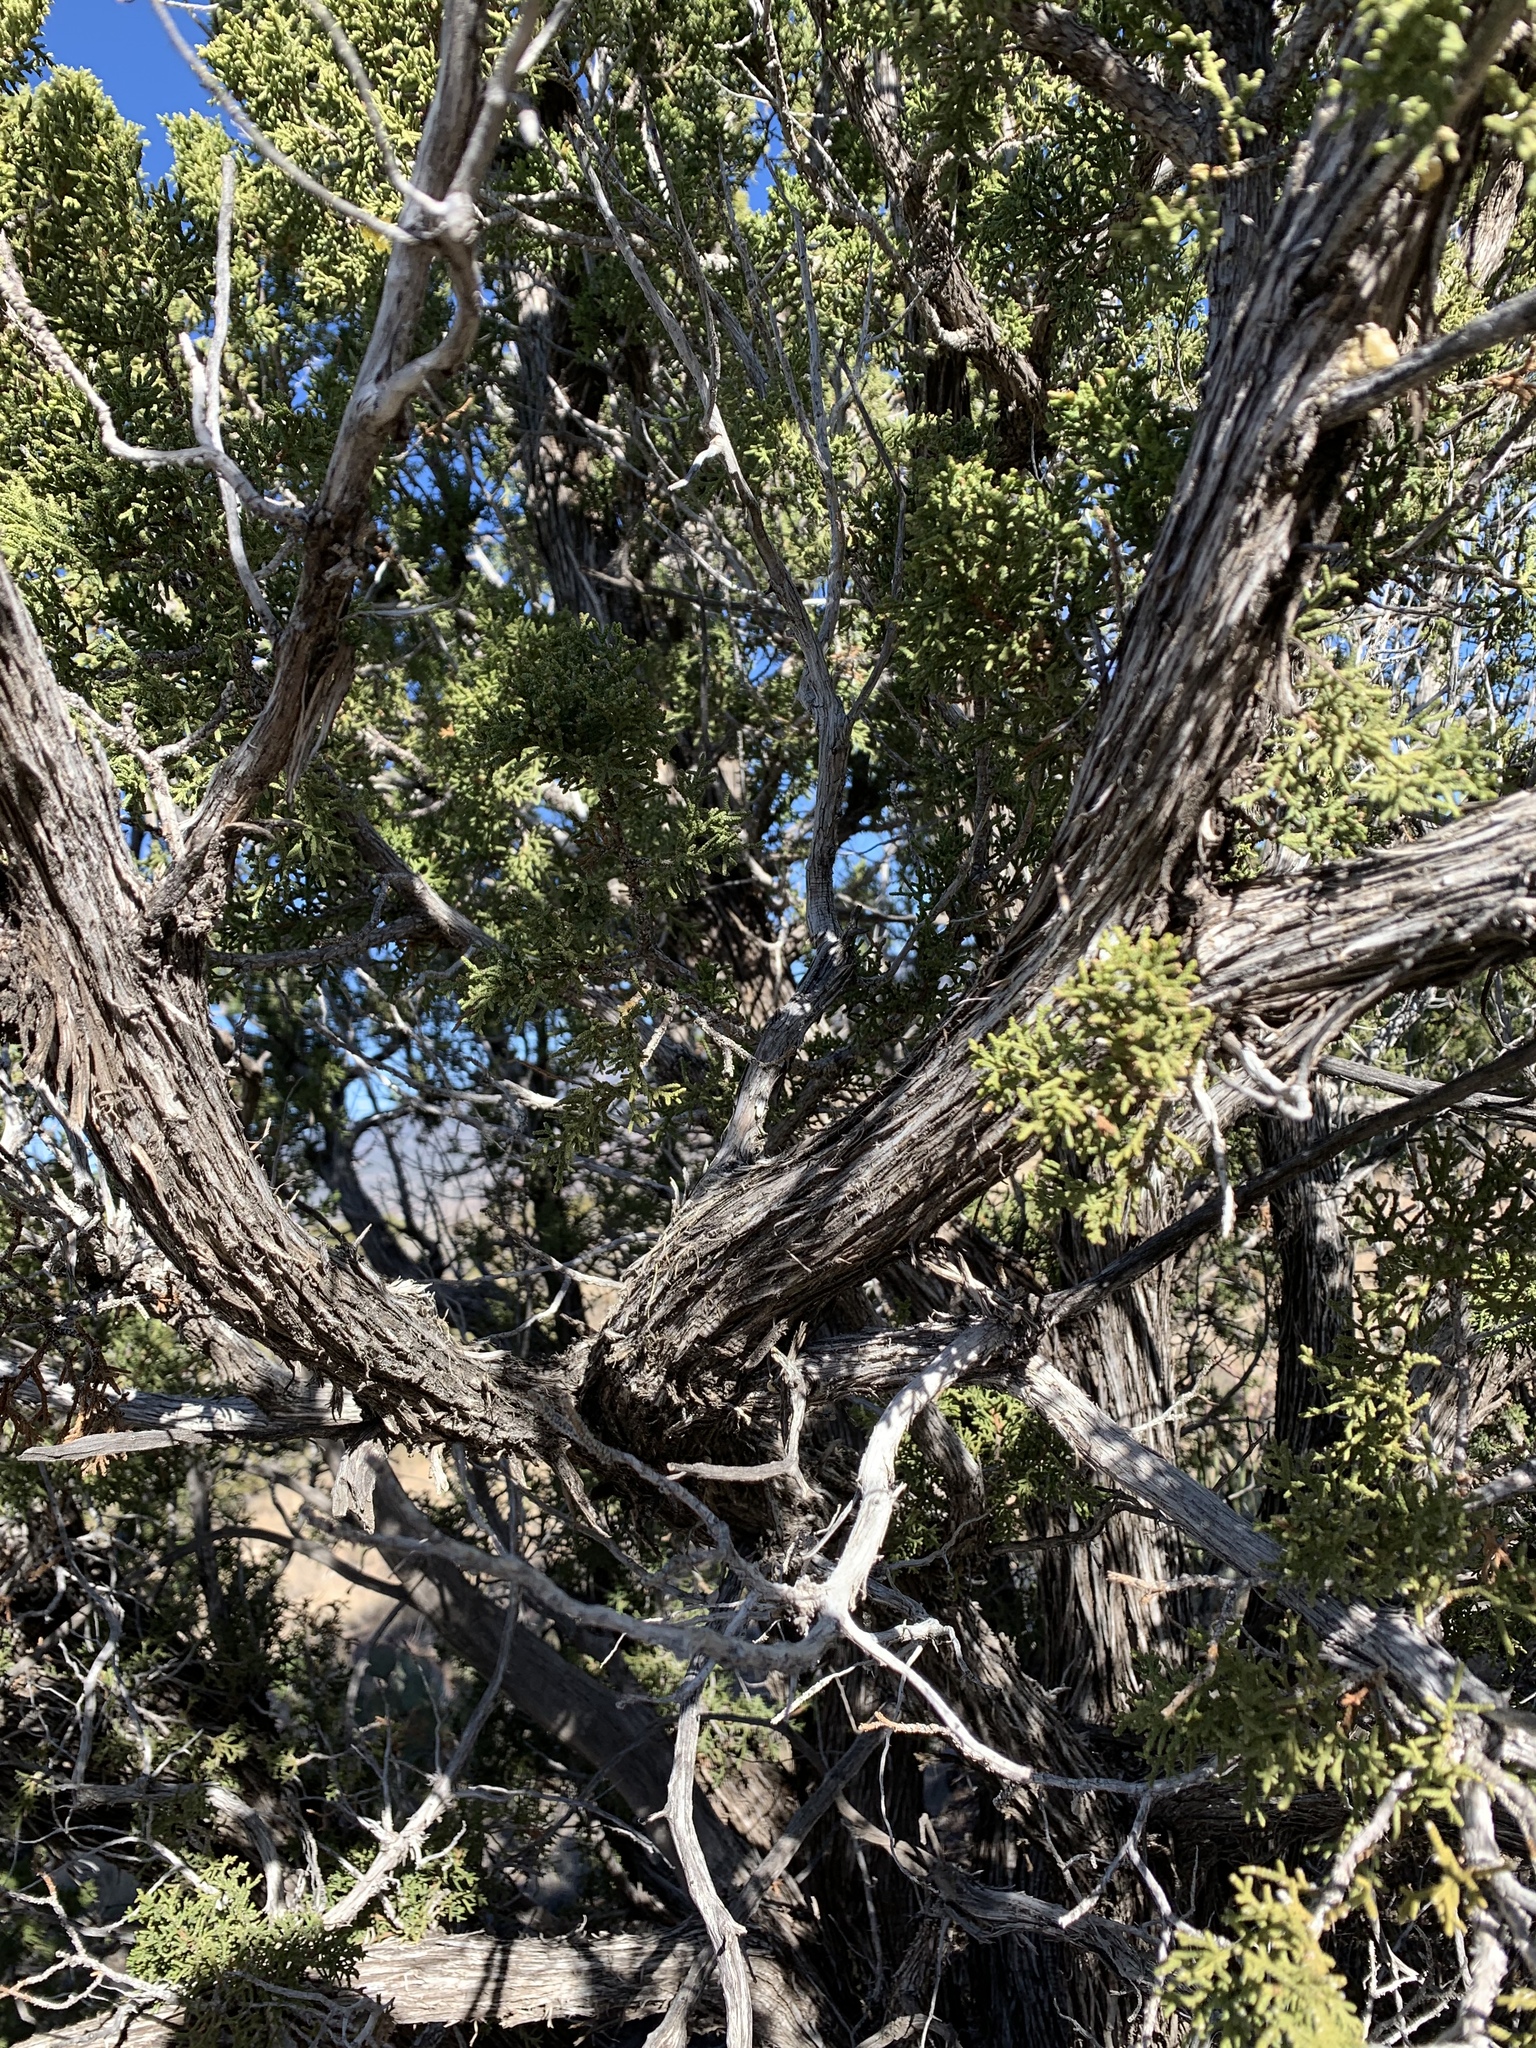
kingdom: Plantae
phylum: Tracheophyta
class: Pinopsida
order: Pinales
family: Cupressaceae
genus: Juniperus
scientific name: Juniperus monosperma
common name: One-seed juniper
